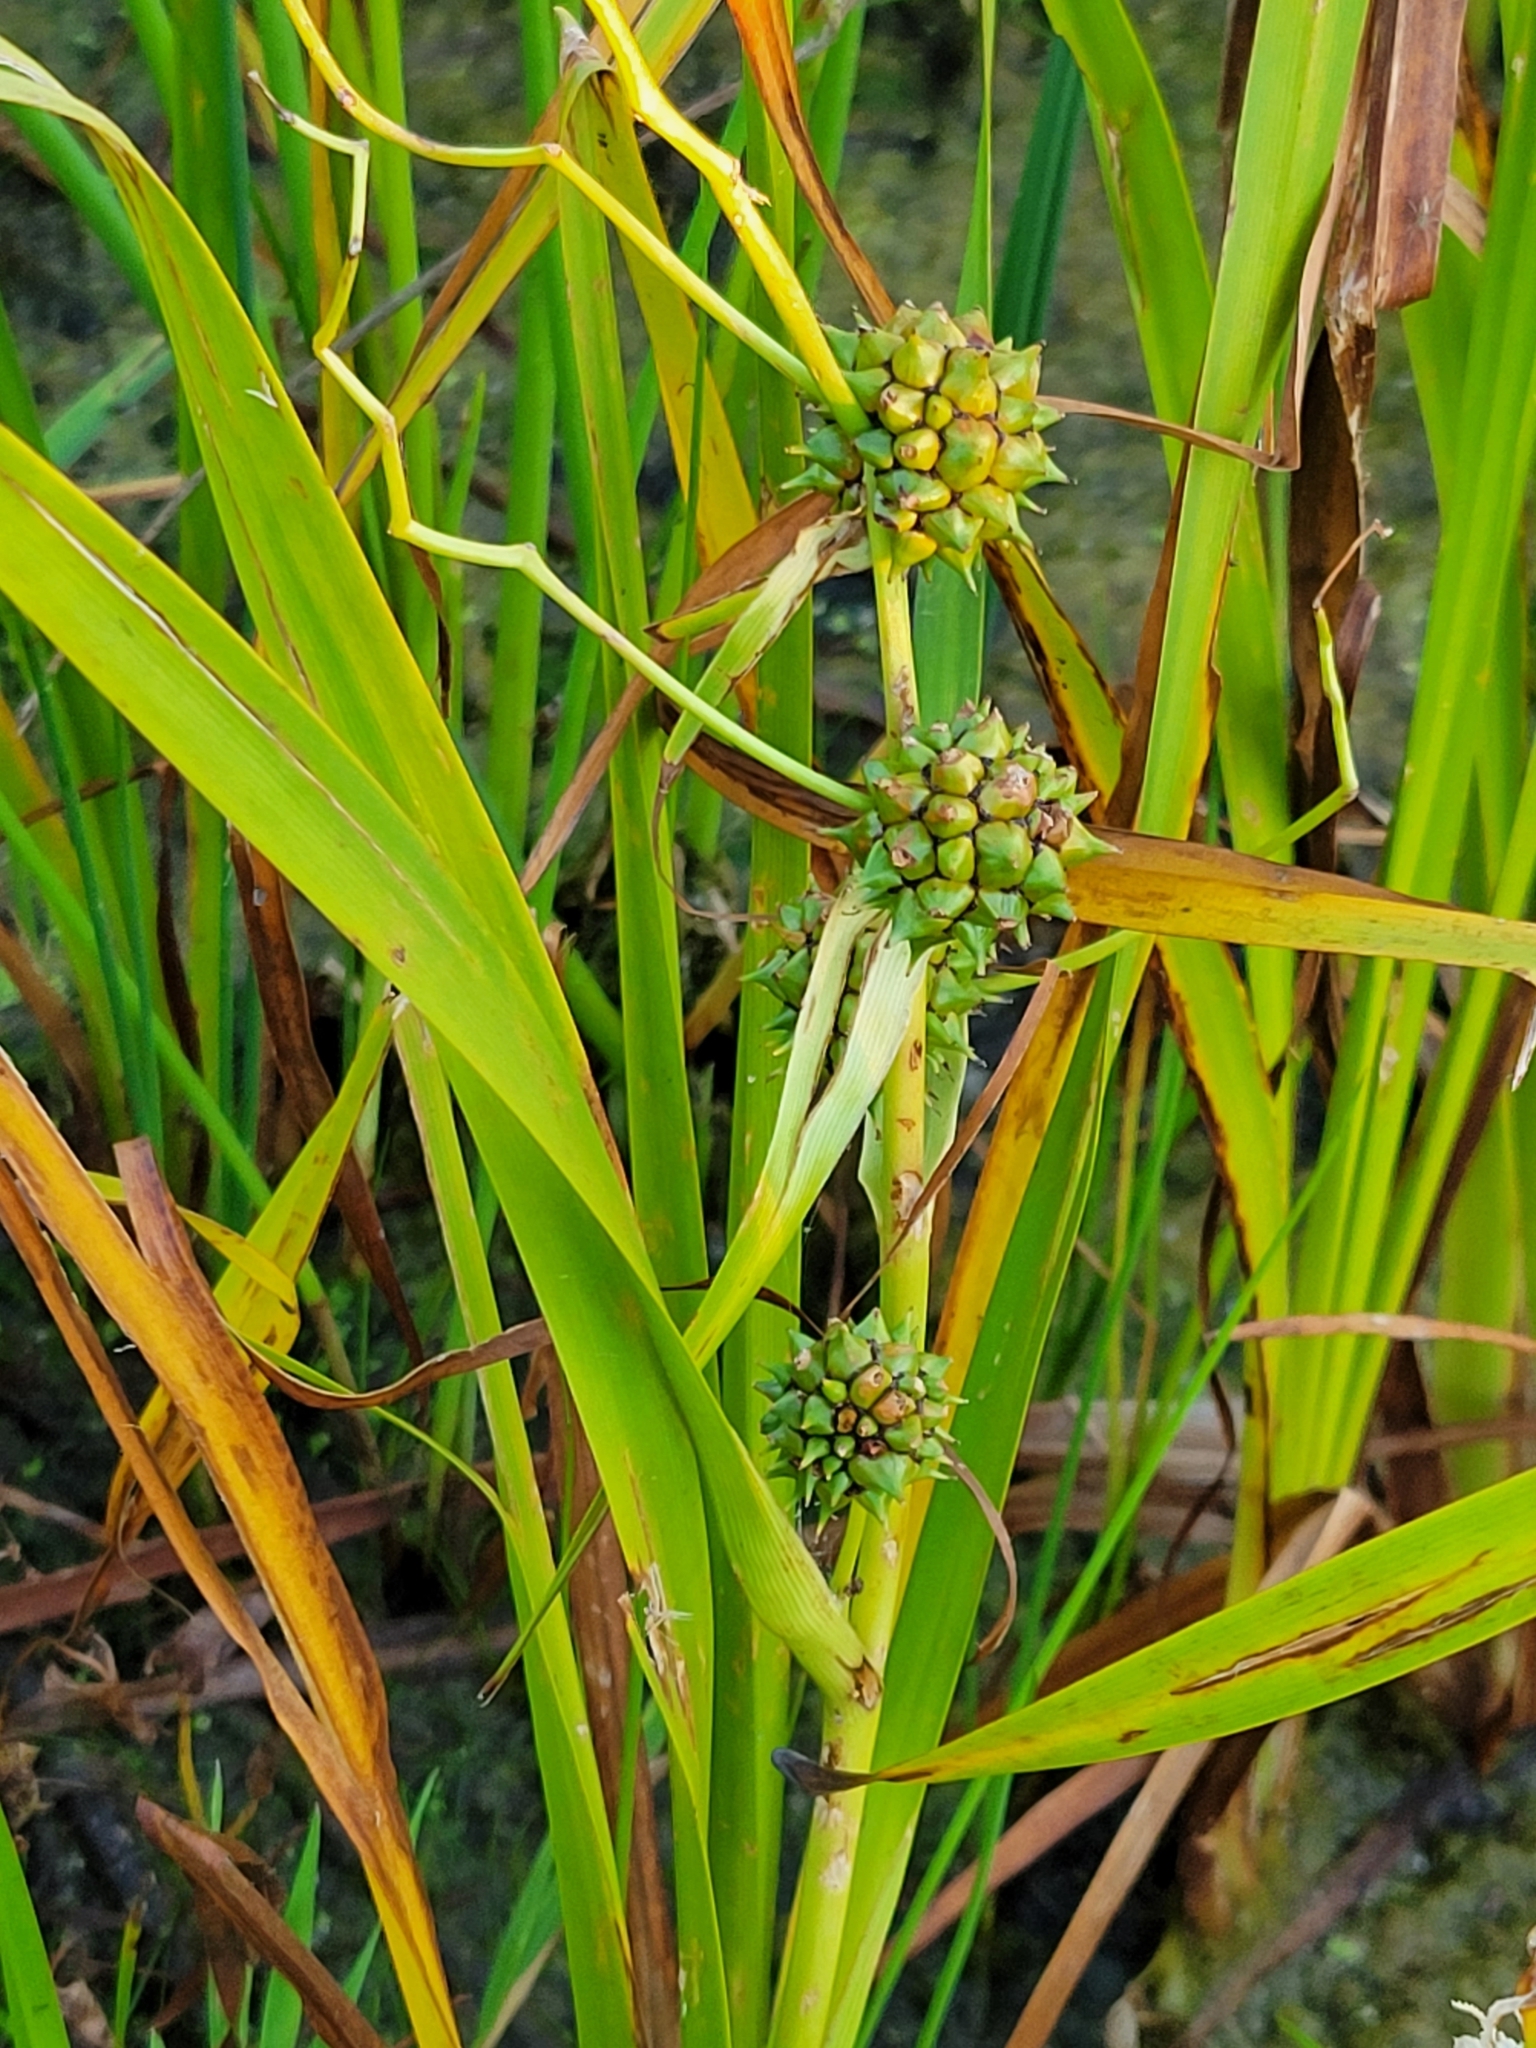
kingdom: Plantae
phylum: Tracheophyta
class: Liliopsida
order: Poales
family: Typhaceae
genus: Sparganium
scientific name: Sparganium eurycarpum
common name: Broad-fruited burreed
